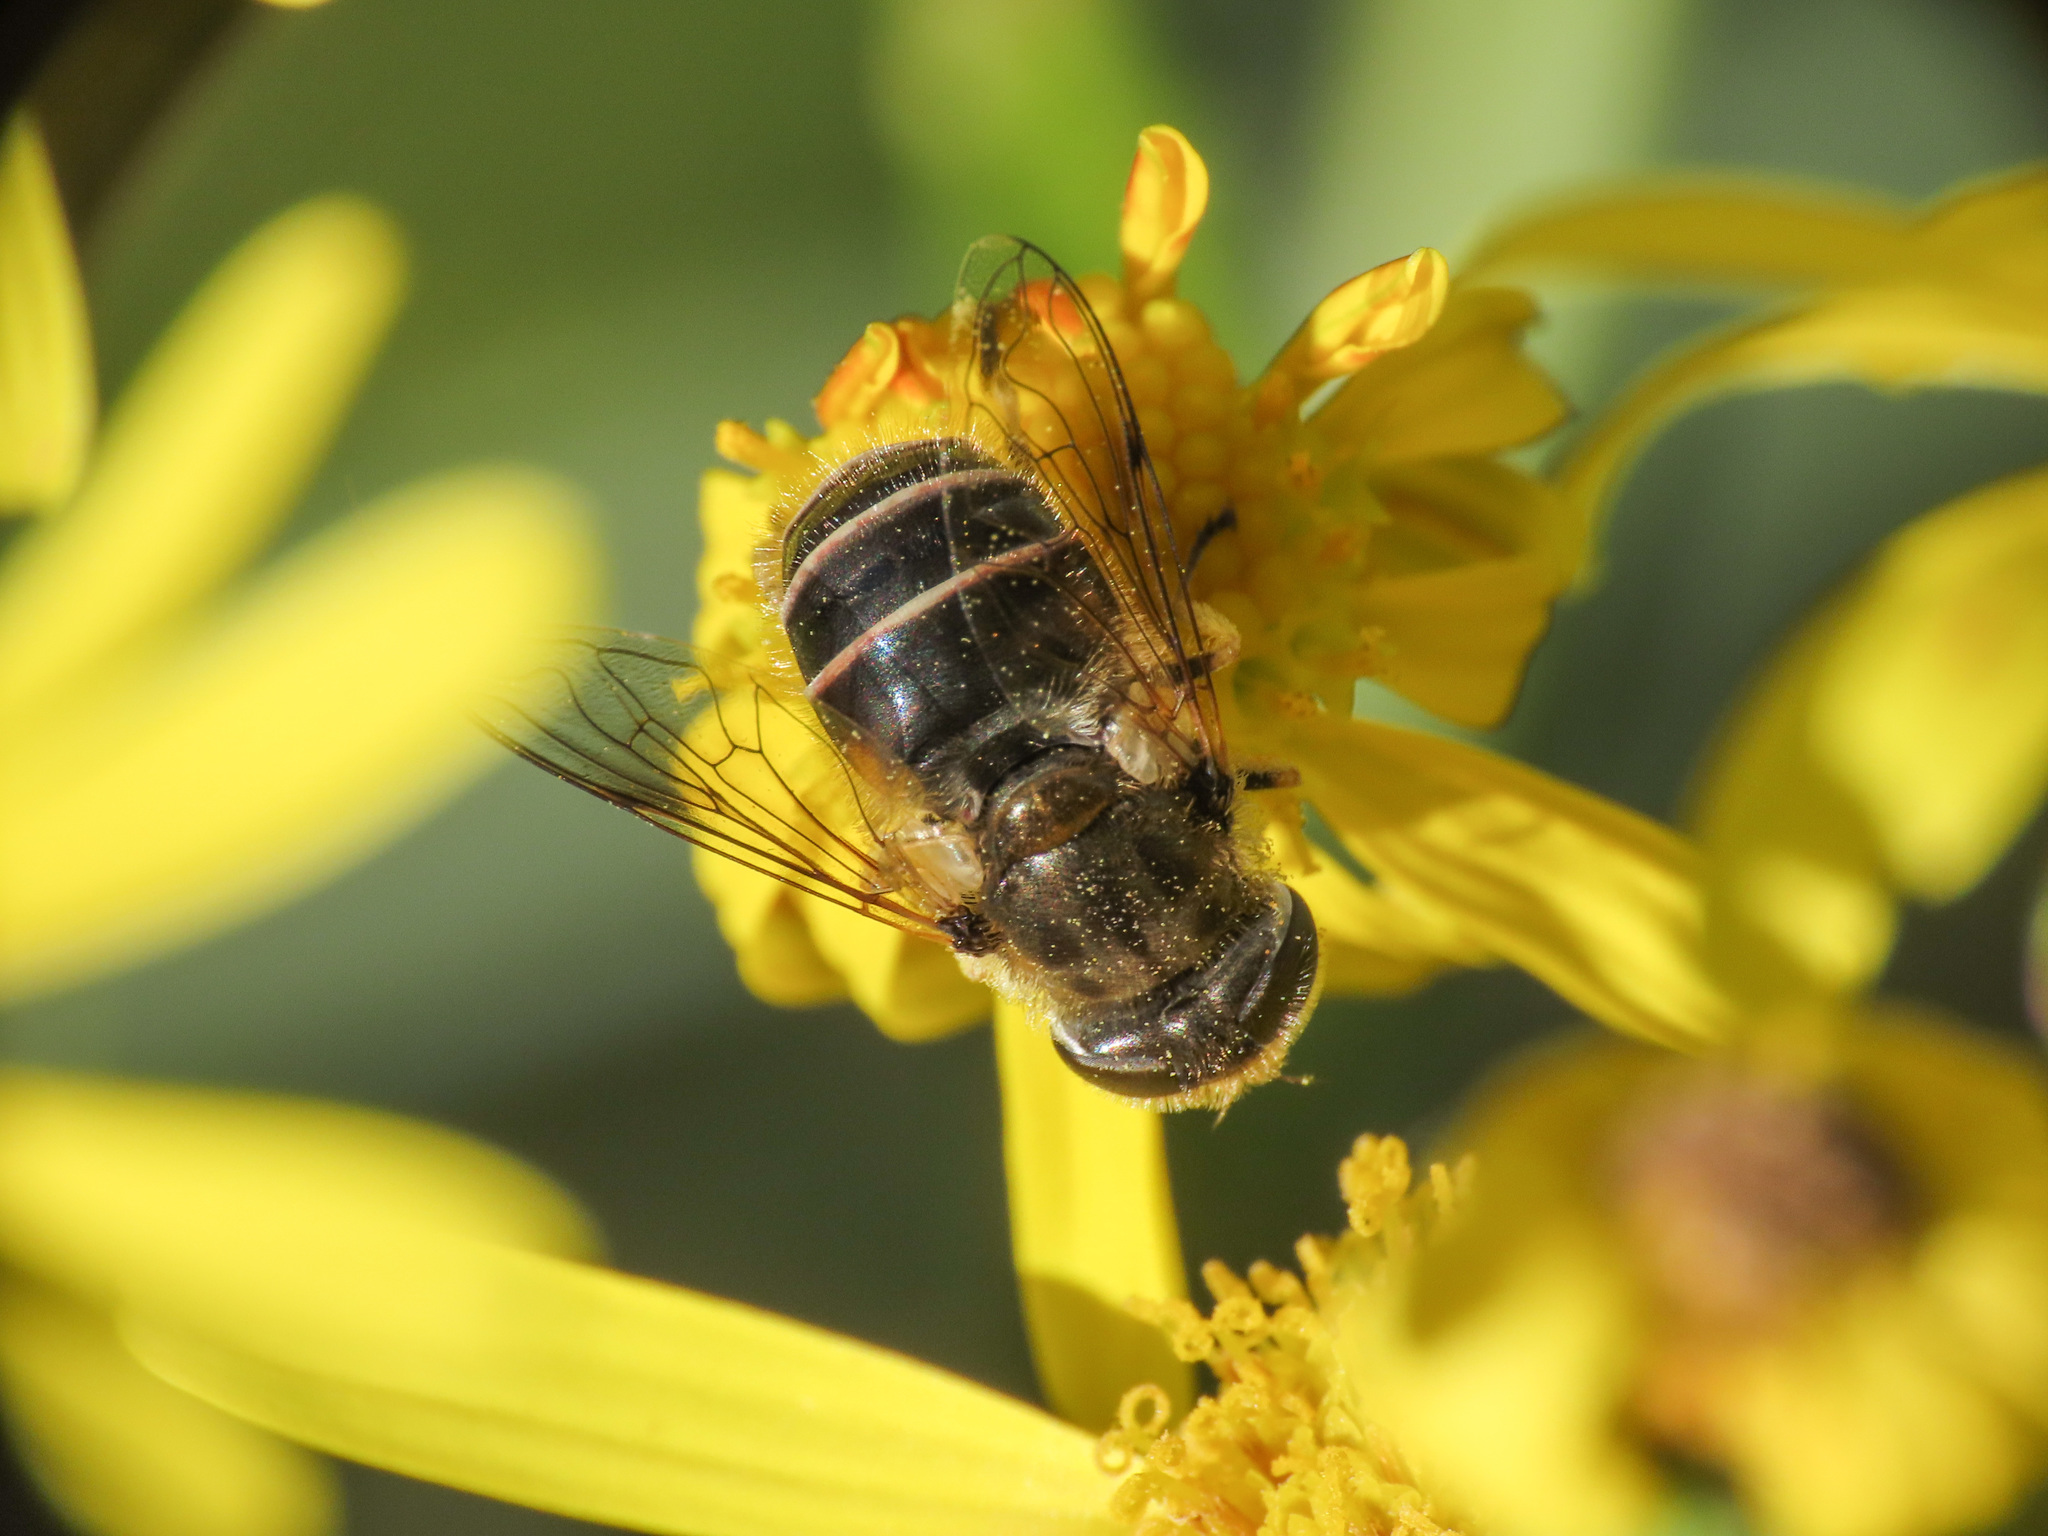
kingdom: Animalia
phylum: Arthropoda
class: Insecta
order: Diptera
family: Syrphidae
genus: Eristalis
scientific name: Eristalis arbustorum
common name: Hover fly
